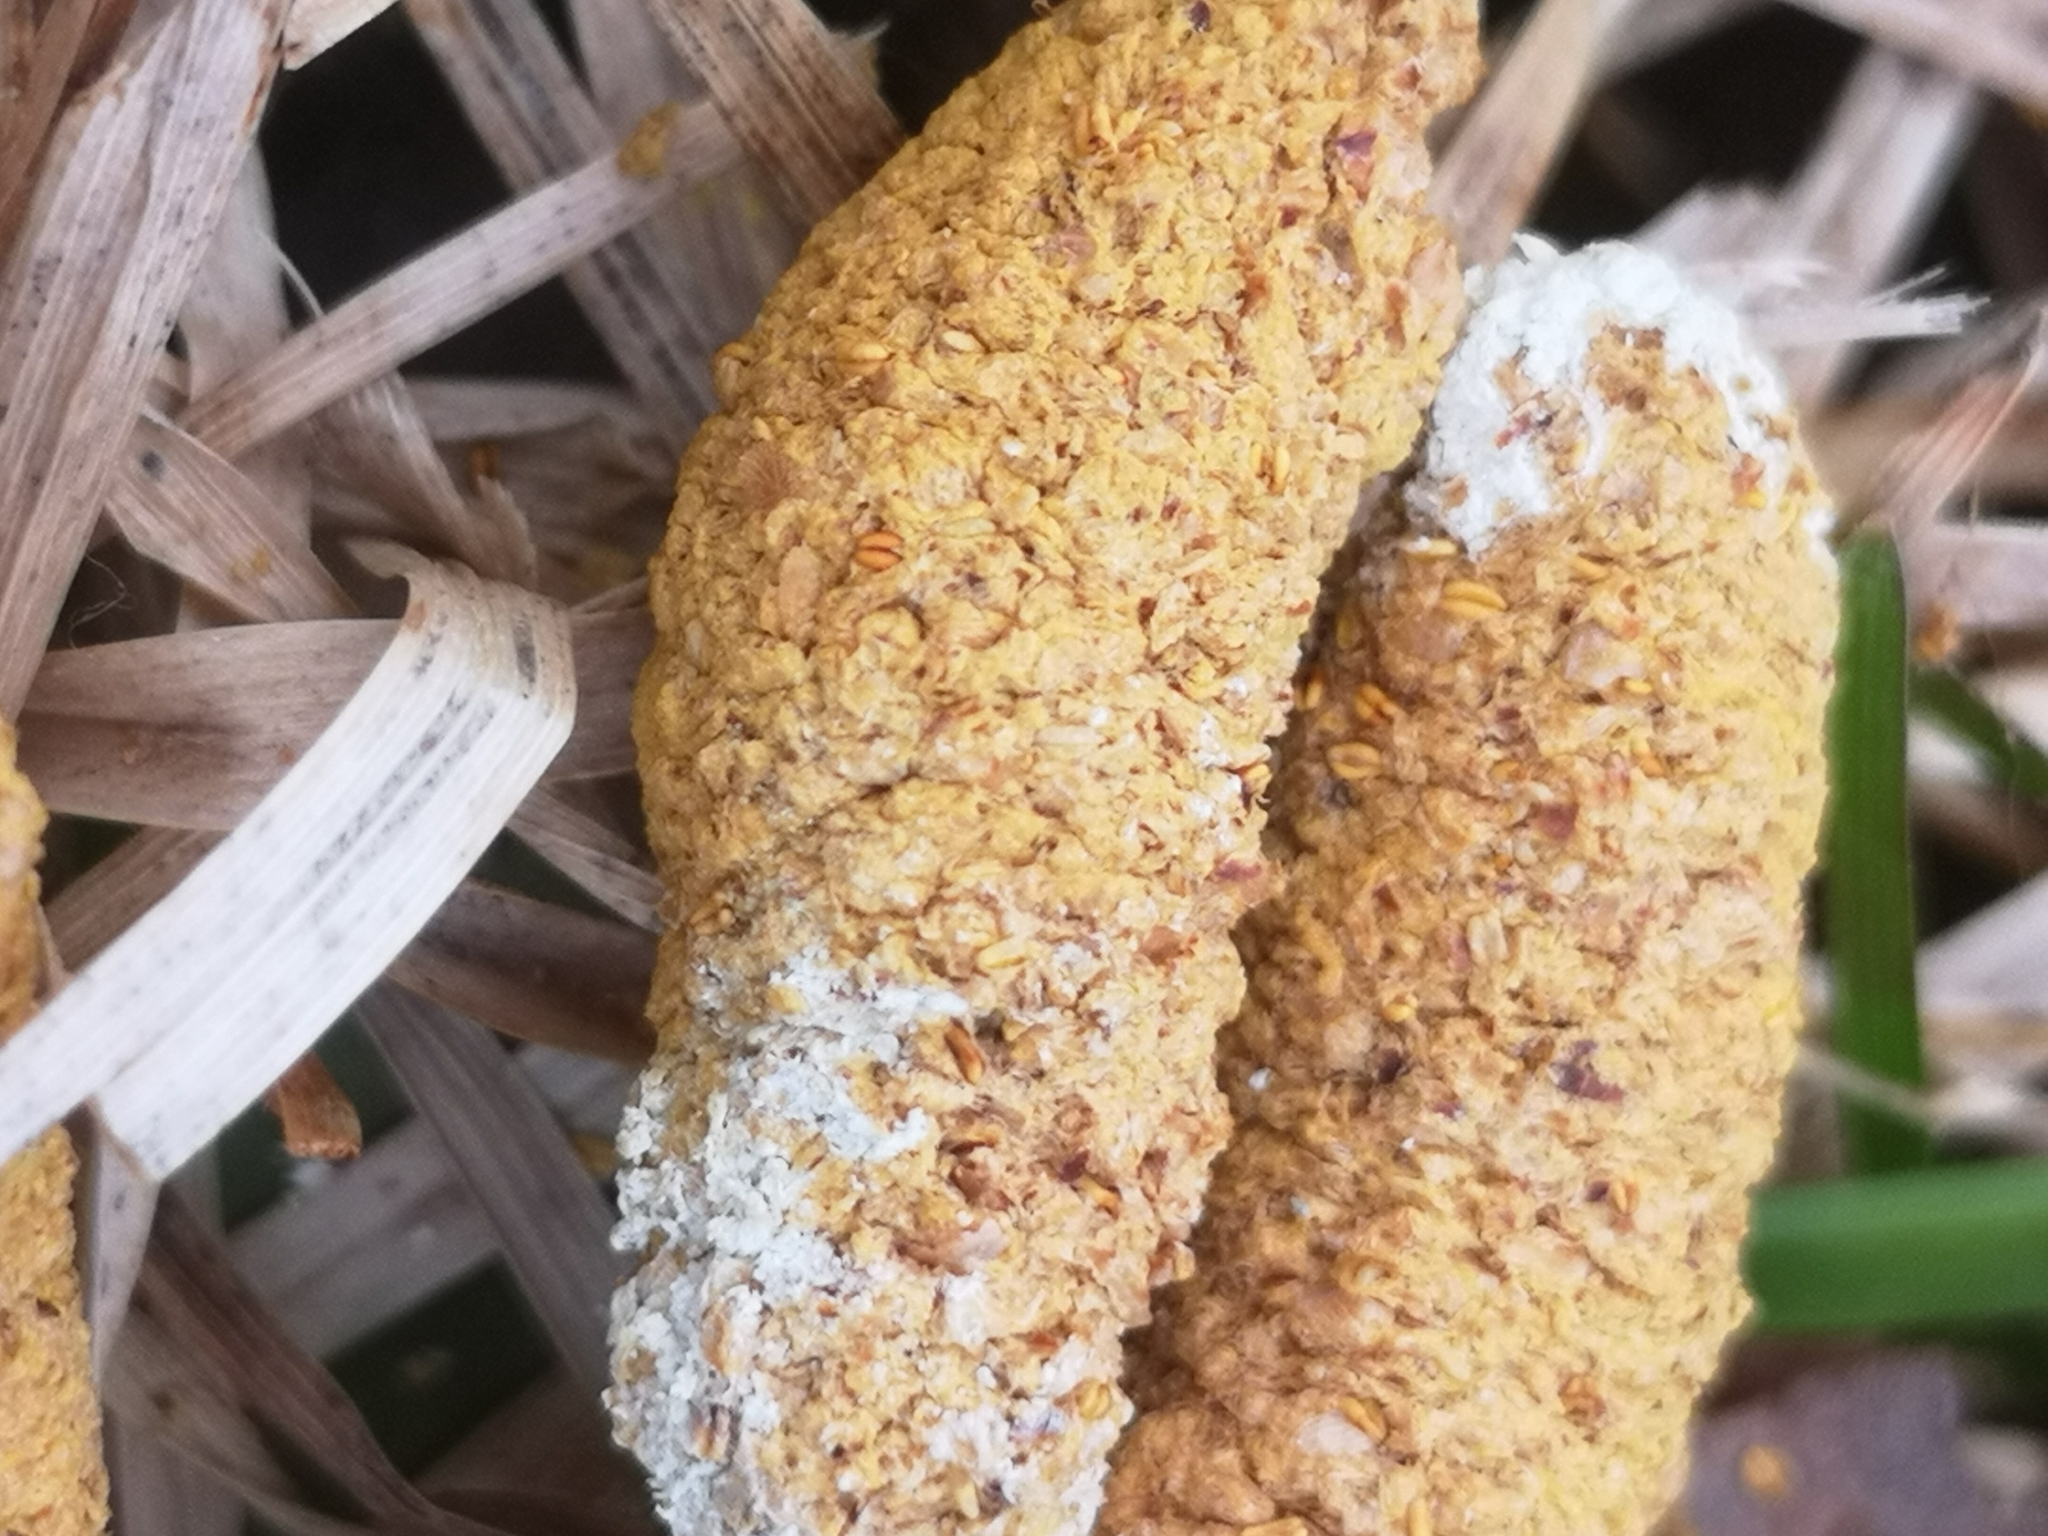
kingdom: Animalia
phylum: Chordata
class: Aves
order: Galliformes
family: Phasianidae
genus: Bonasa
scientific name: Bonasa umbellus
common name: Ruffed grouse
